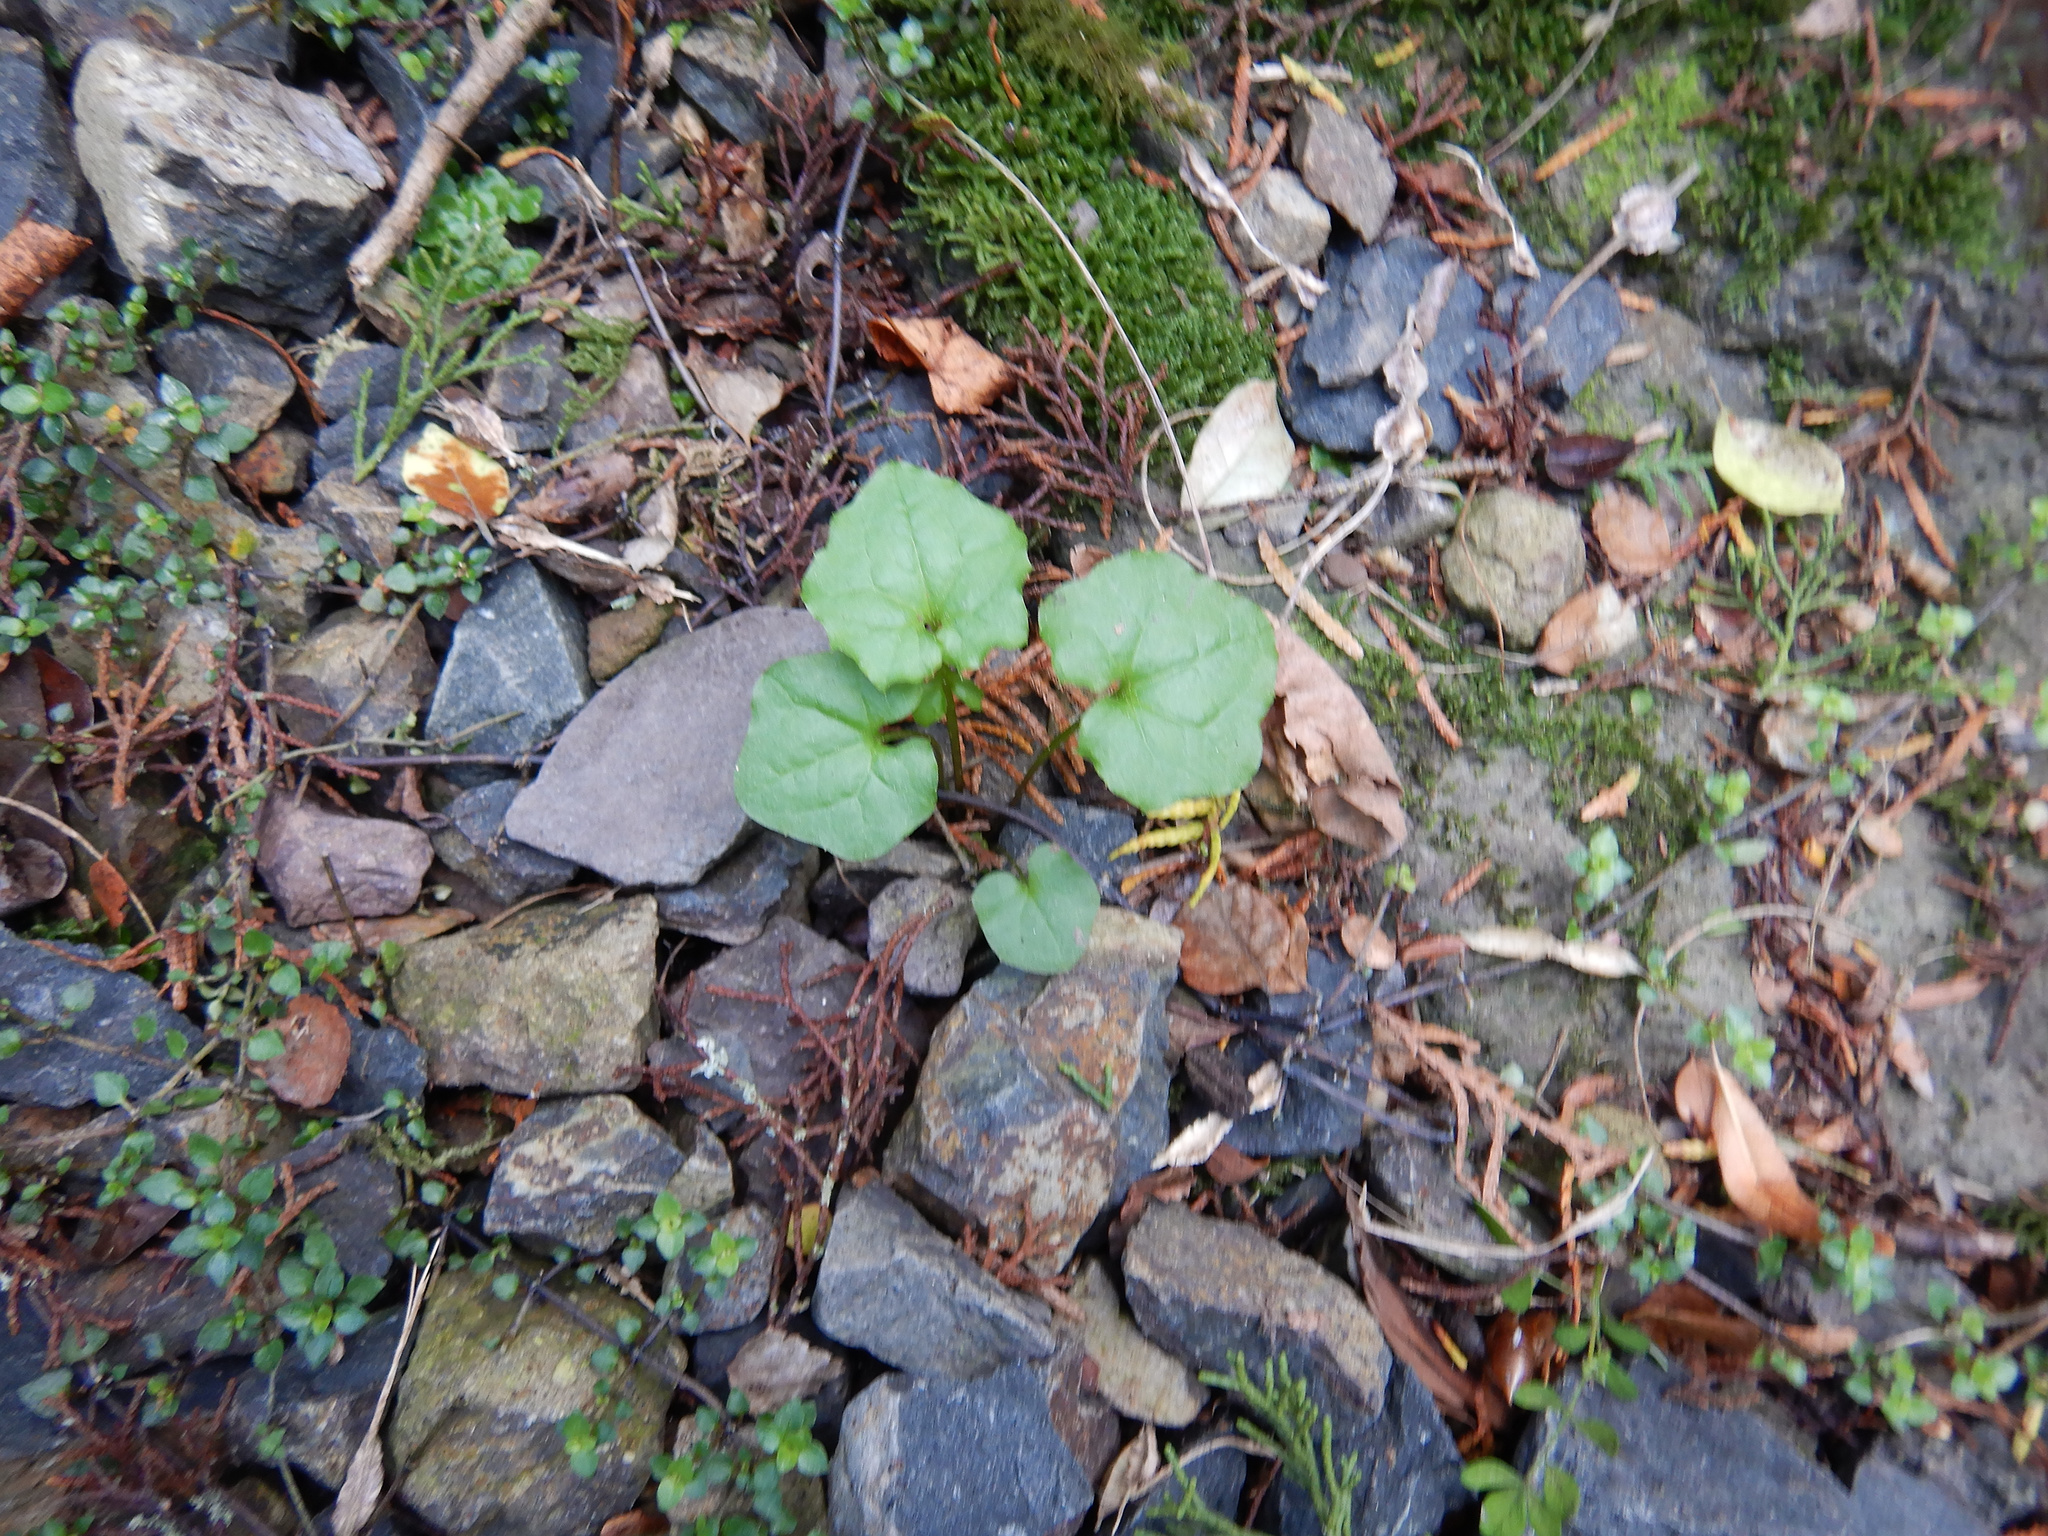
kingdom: Plantae
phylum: Tracheophyta
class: Magnoliopsida
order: Asterales
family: Asteraceae
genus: Mycelis
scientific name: Mycelis muralis
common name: Wall lettuce
